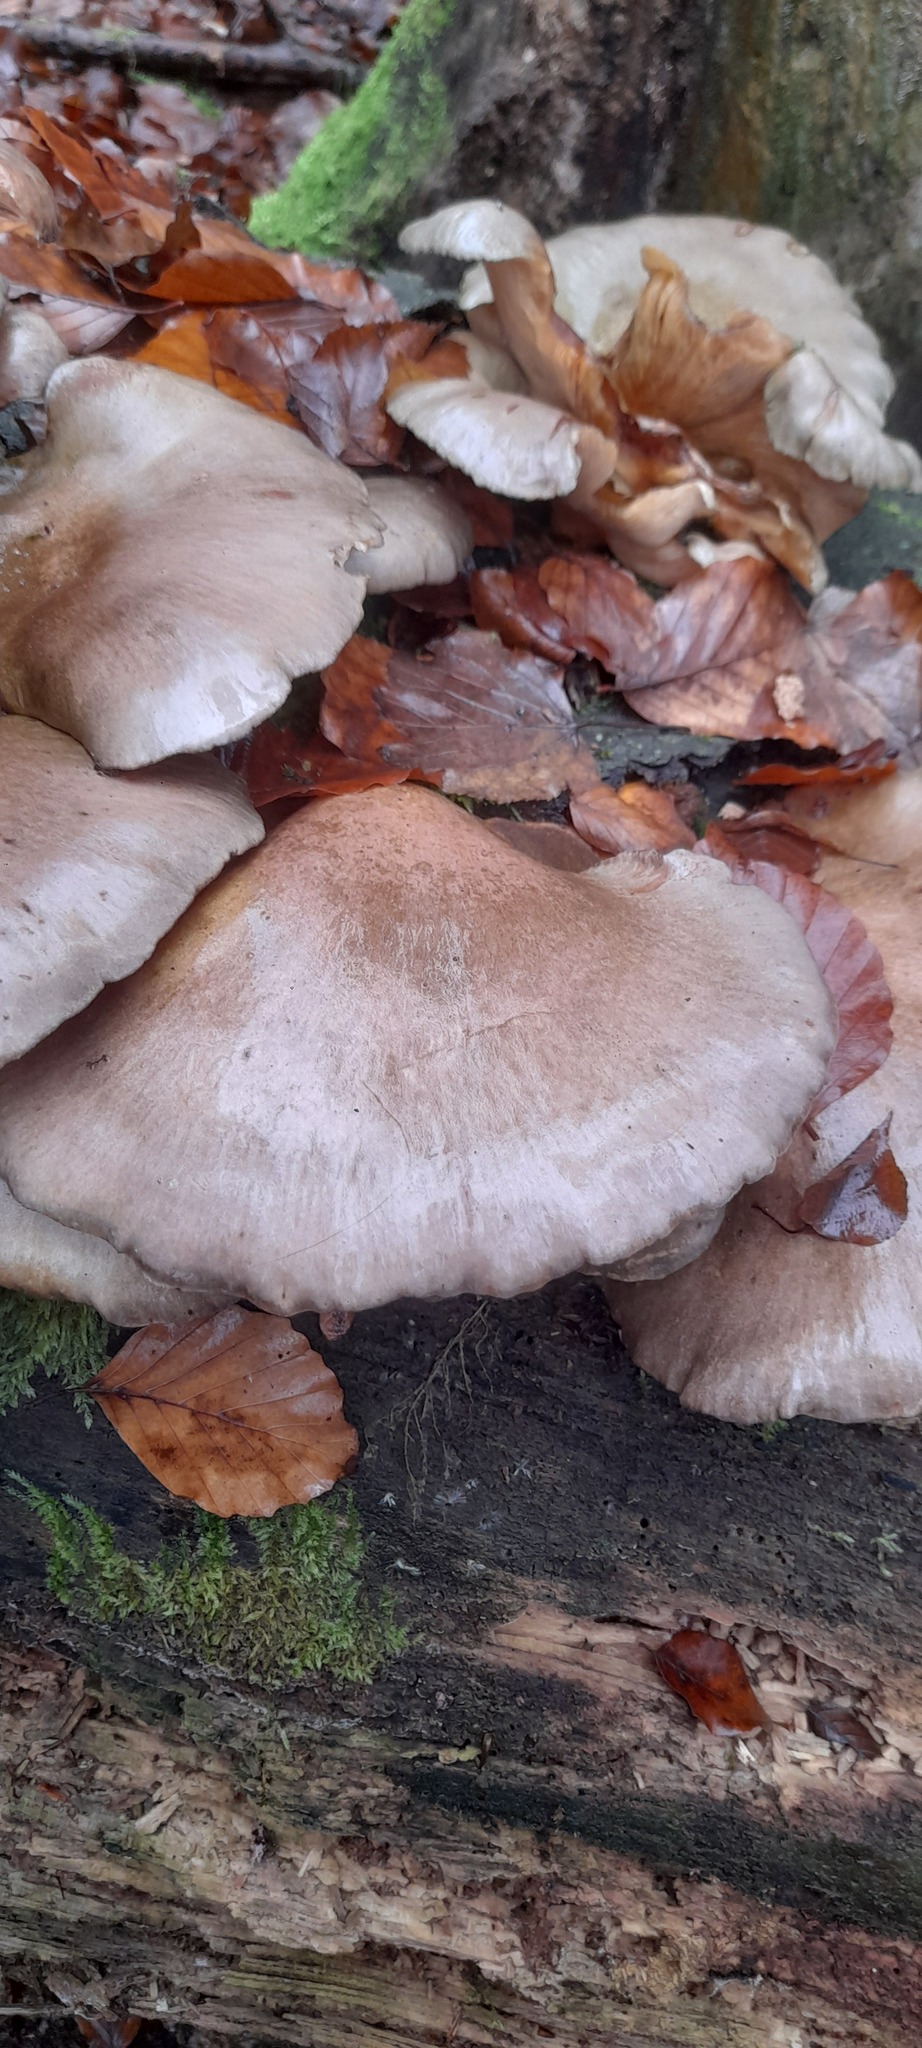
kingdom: Fungi
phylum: Basidiomycota
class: Agaricomycetes
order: Agaricales
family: Sarcomyxaceae
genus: Sarcomyxa
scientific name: Sarcomyxa serotina
